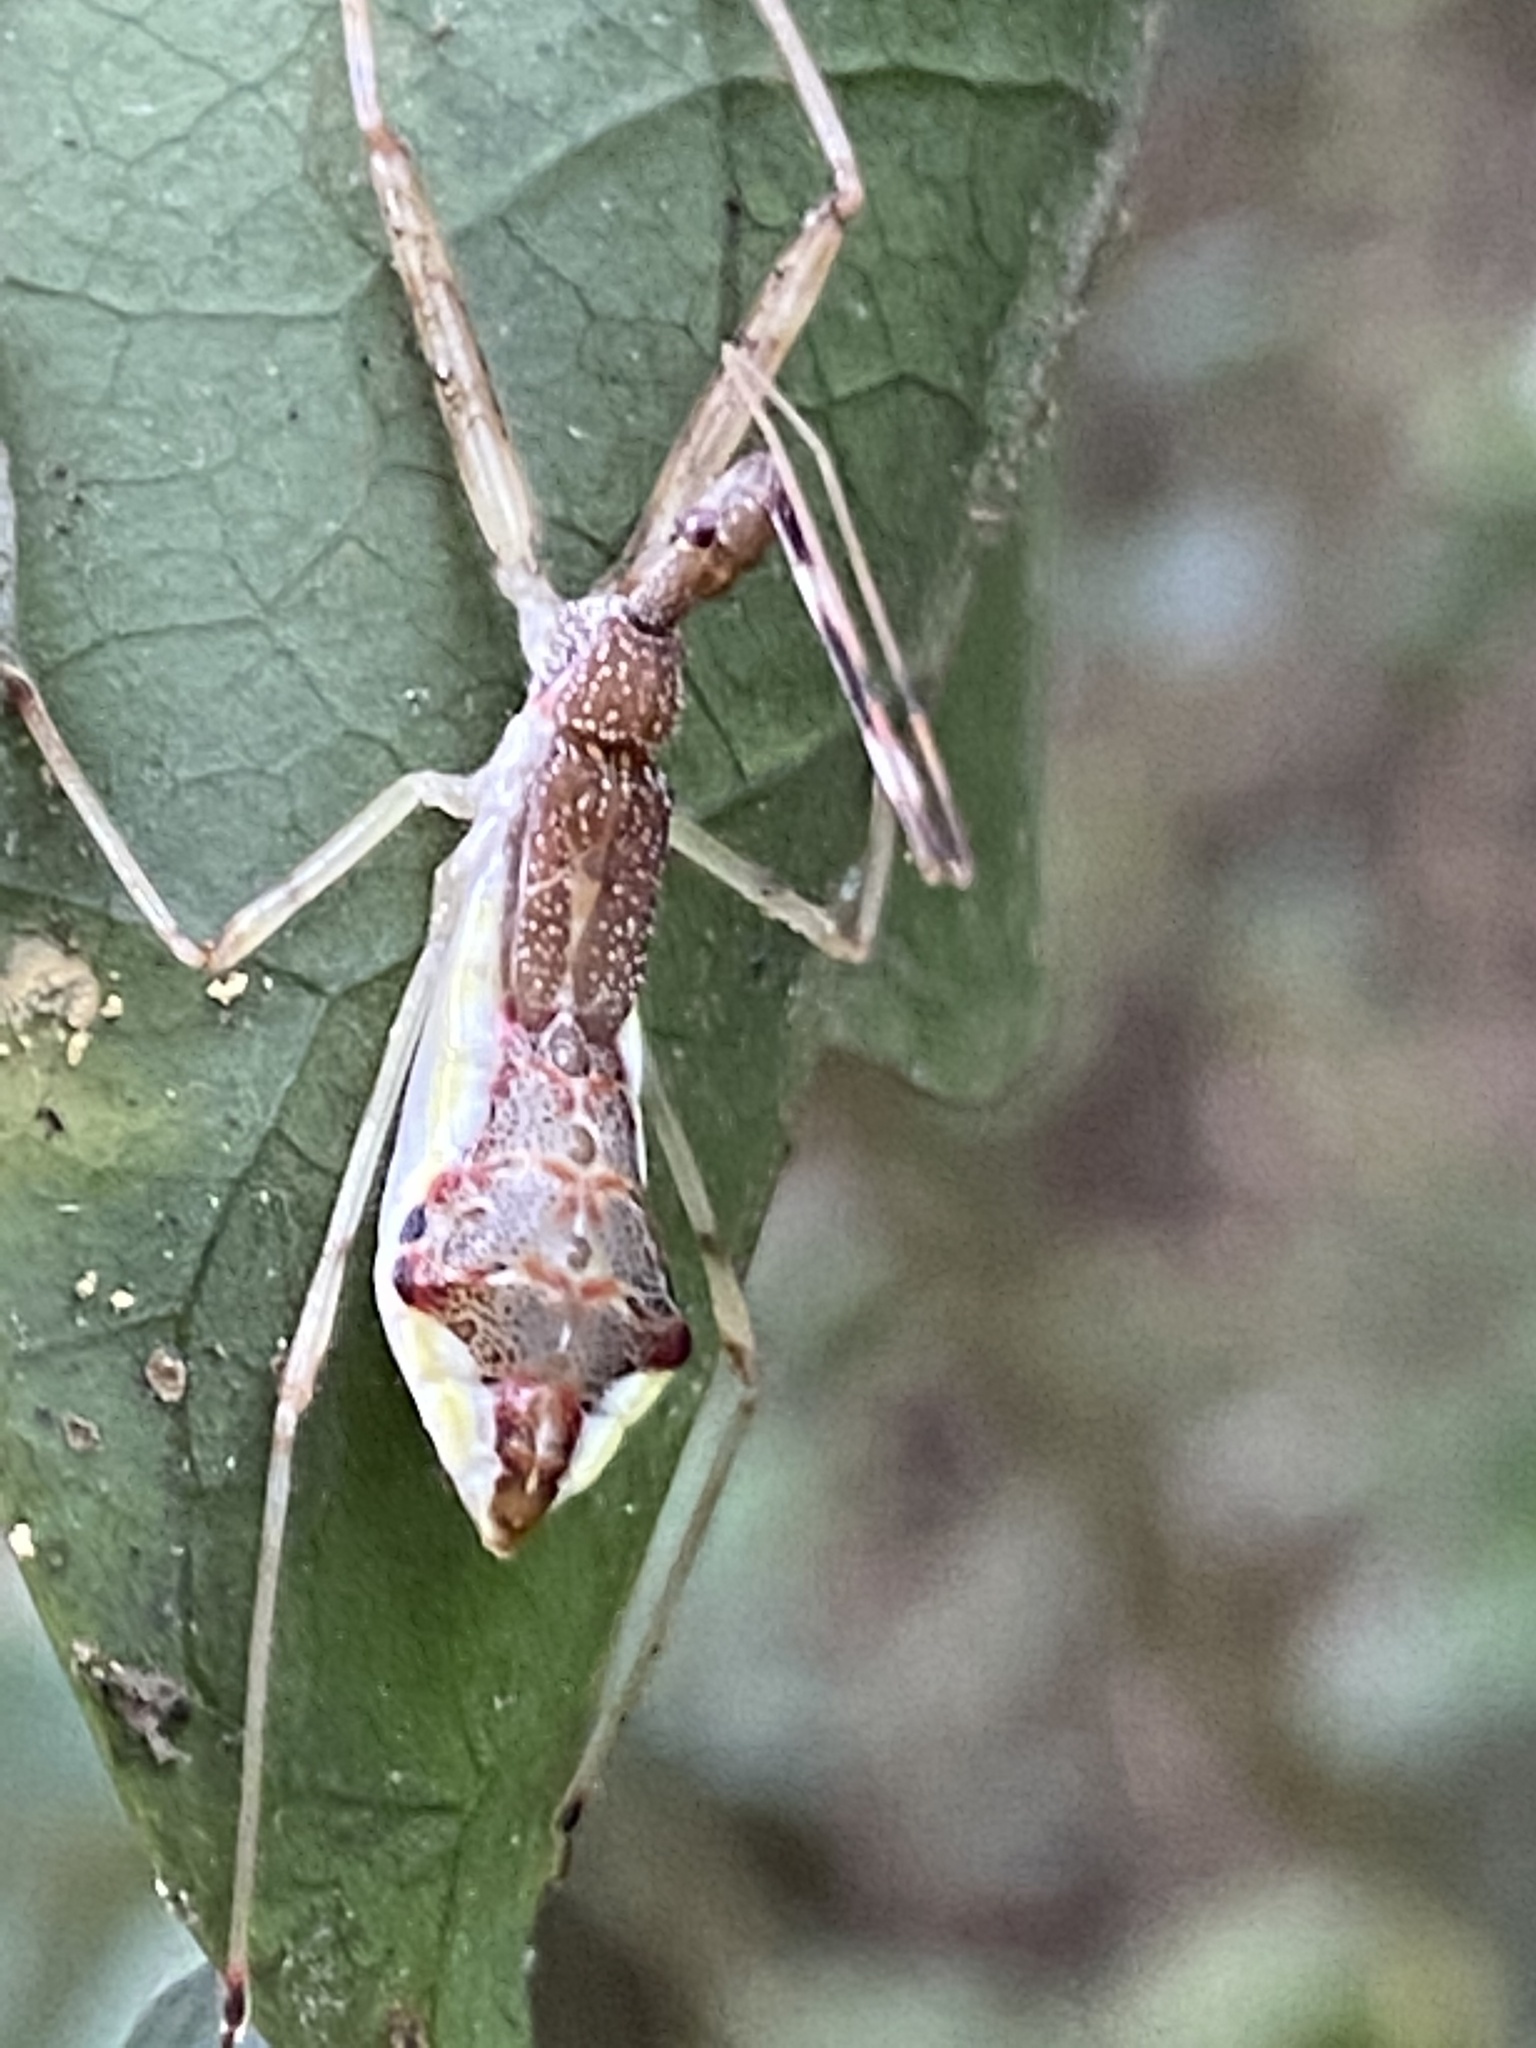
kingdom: Animalia
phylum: Arthropoda
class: Insecta
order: Hemiptera
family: Reduviidae
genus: Epidaus
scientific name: Epidaus sexspinus
